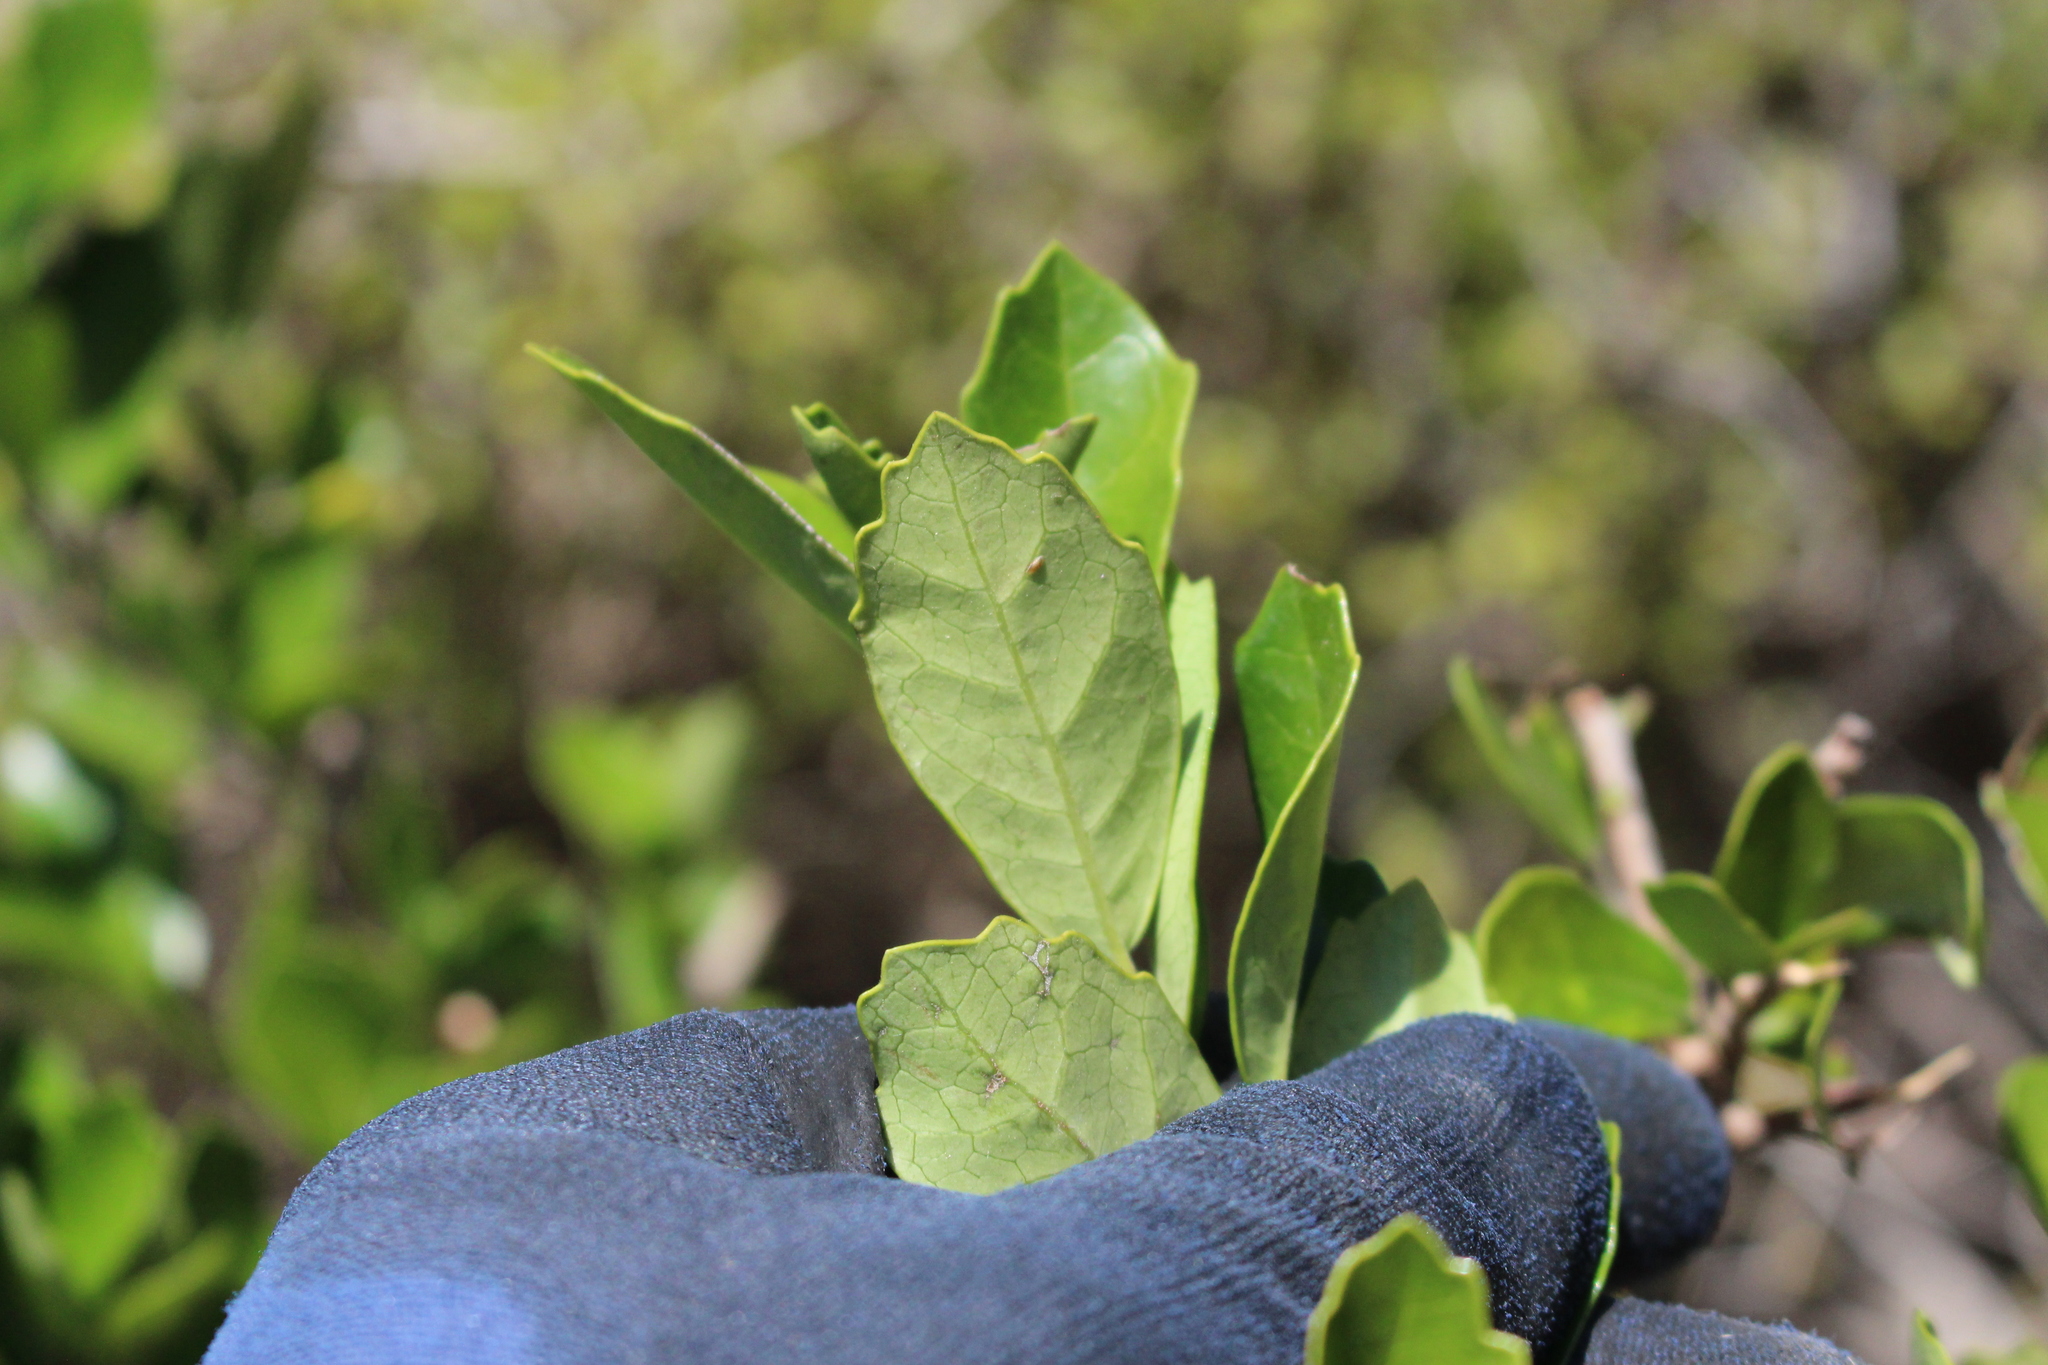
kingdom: Plantae
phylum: Tracheophyta
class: Magnoliopsida
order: Apiales
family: Pennantiaceae
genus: Pennantia
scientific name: Pennantia corymbosa
